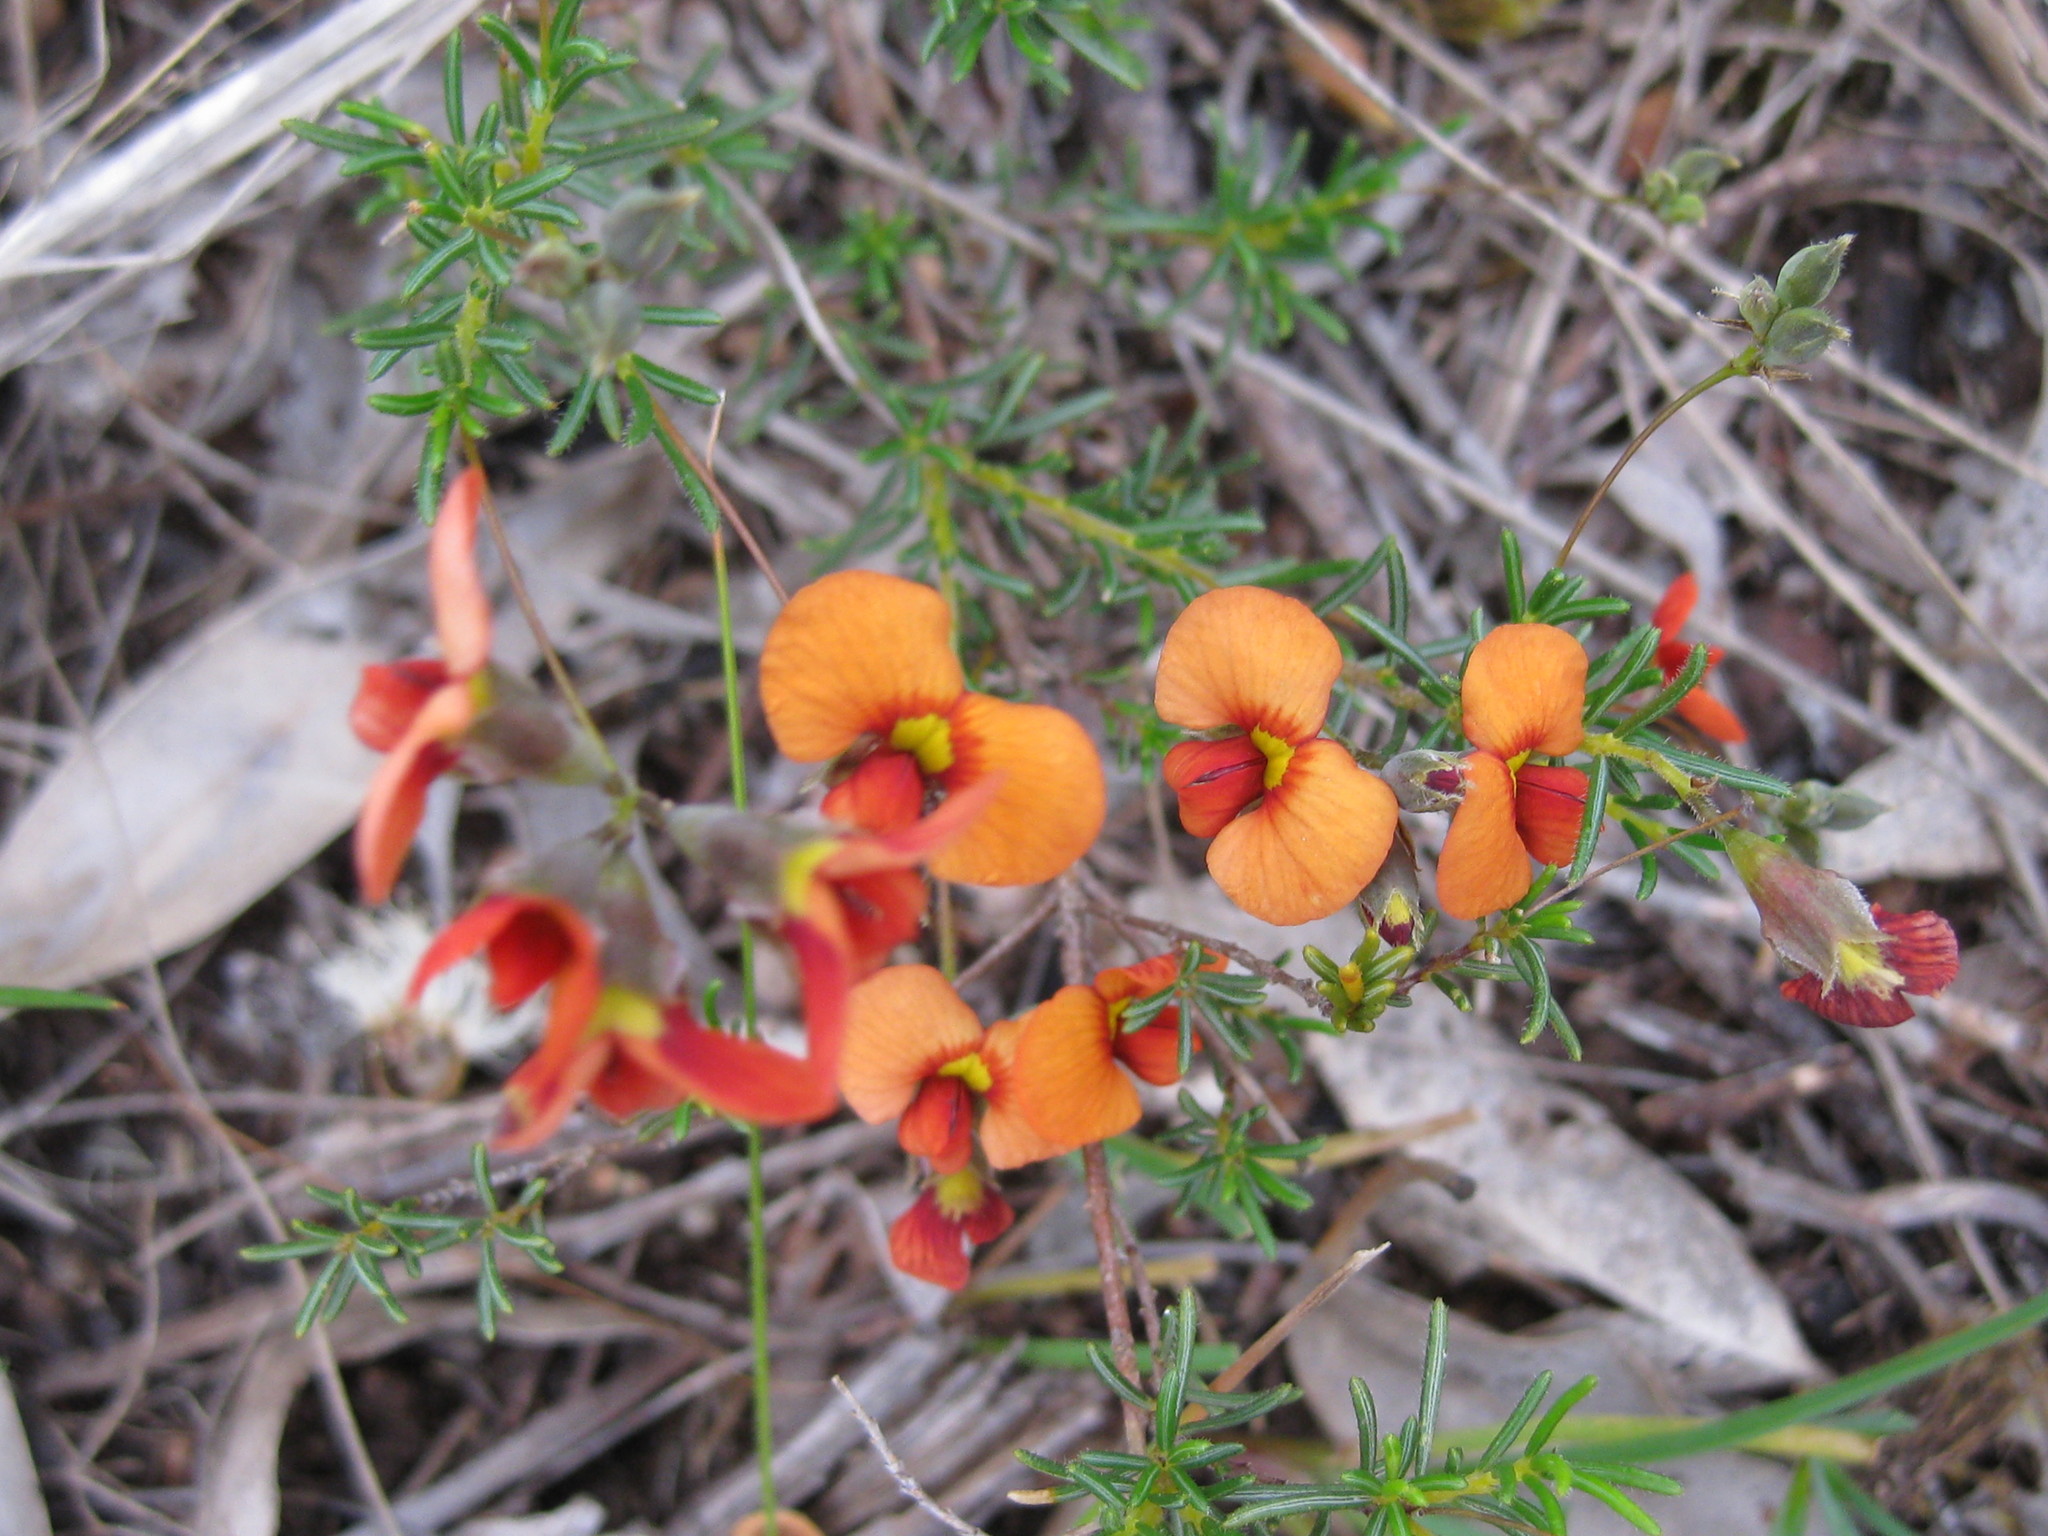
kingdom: Plantae
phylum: Tracheophyta
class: Magnoliopsida
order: Fabales
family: Fabaceae
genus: Dillwynia
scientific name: Dillwynia hispida
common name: Red parrot-pea
